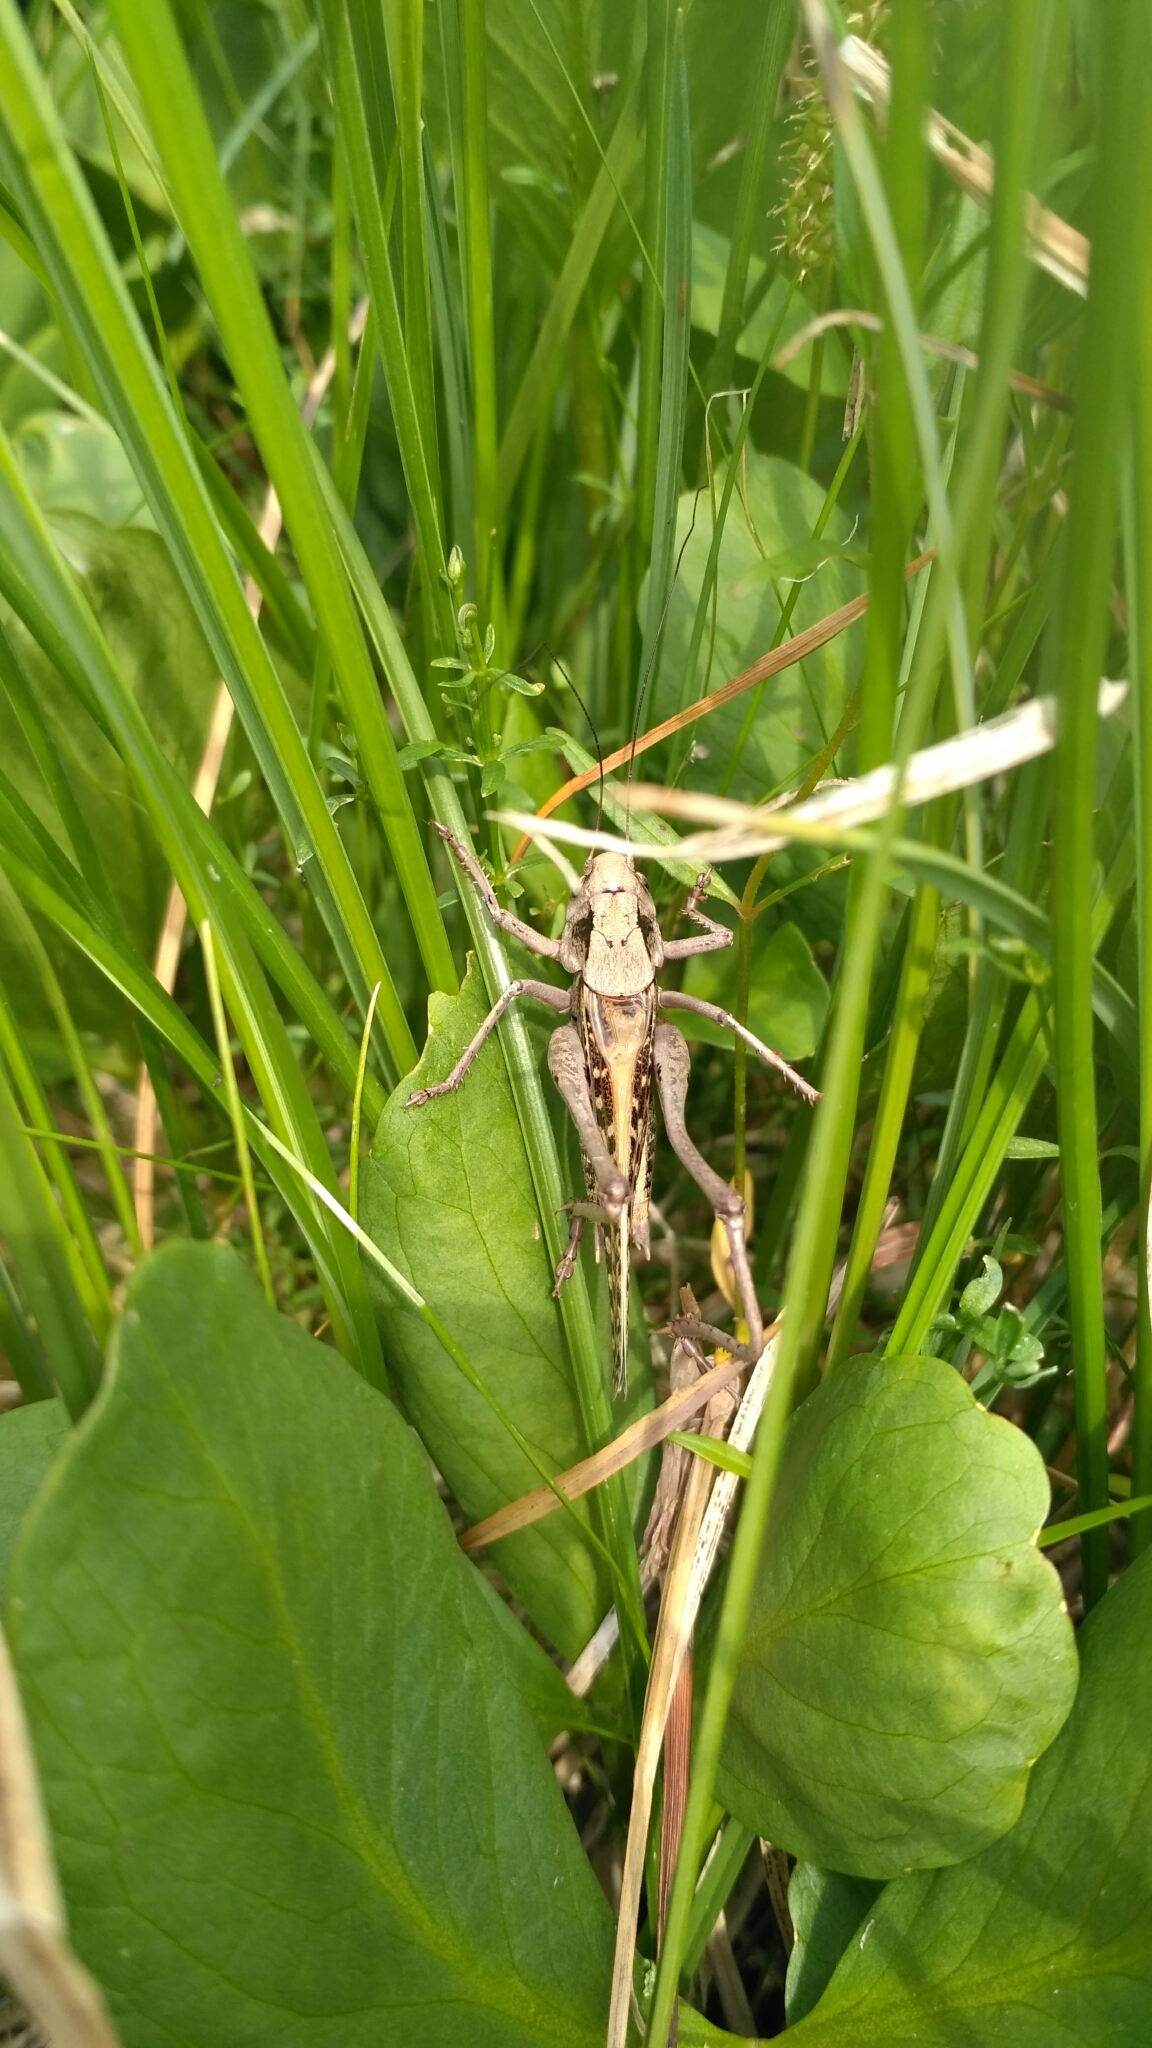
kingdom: Animalia
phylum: Arthropoda
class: Insecta
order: Orthoptera
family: Tettigoniidae
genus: Decticus
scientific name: Decticus verrucivorus
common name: Wart-biter
